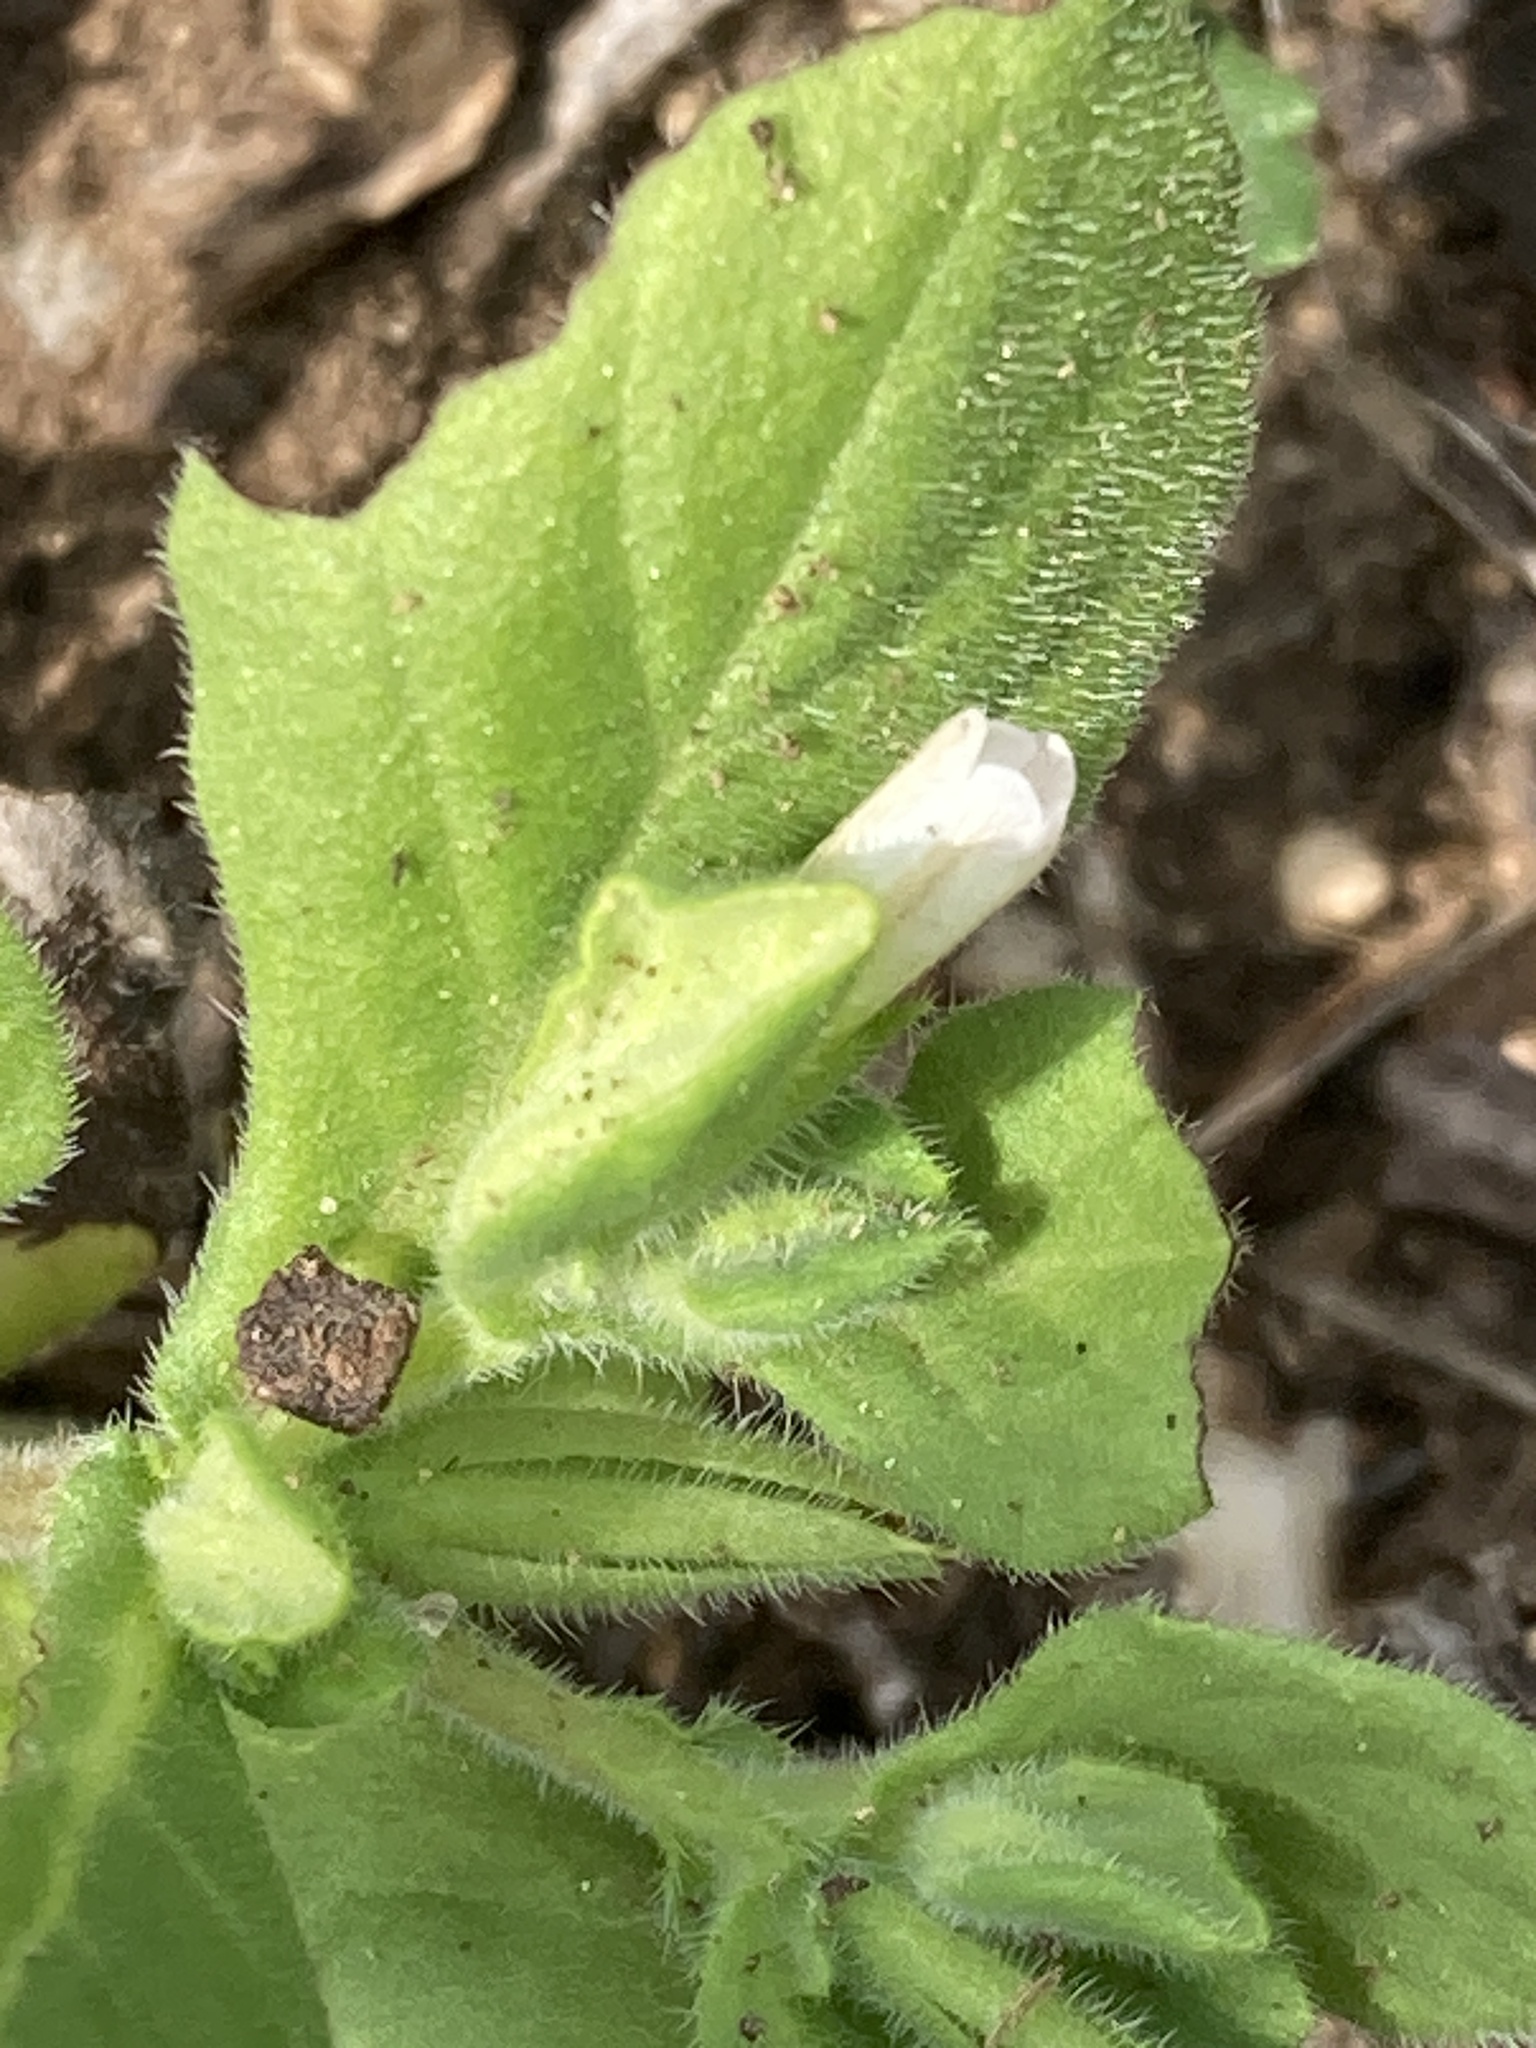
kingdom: Plantae
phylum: Tracheophyta
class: Magnoliopsida
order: Boraginales
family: Namaceae
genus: Nama
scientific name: Nama jamaicensis
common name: Jamaicanweed
